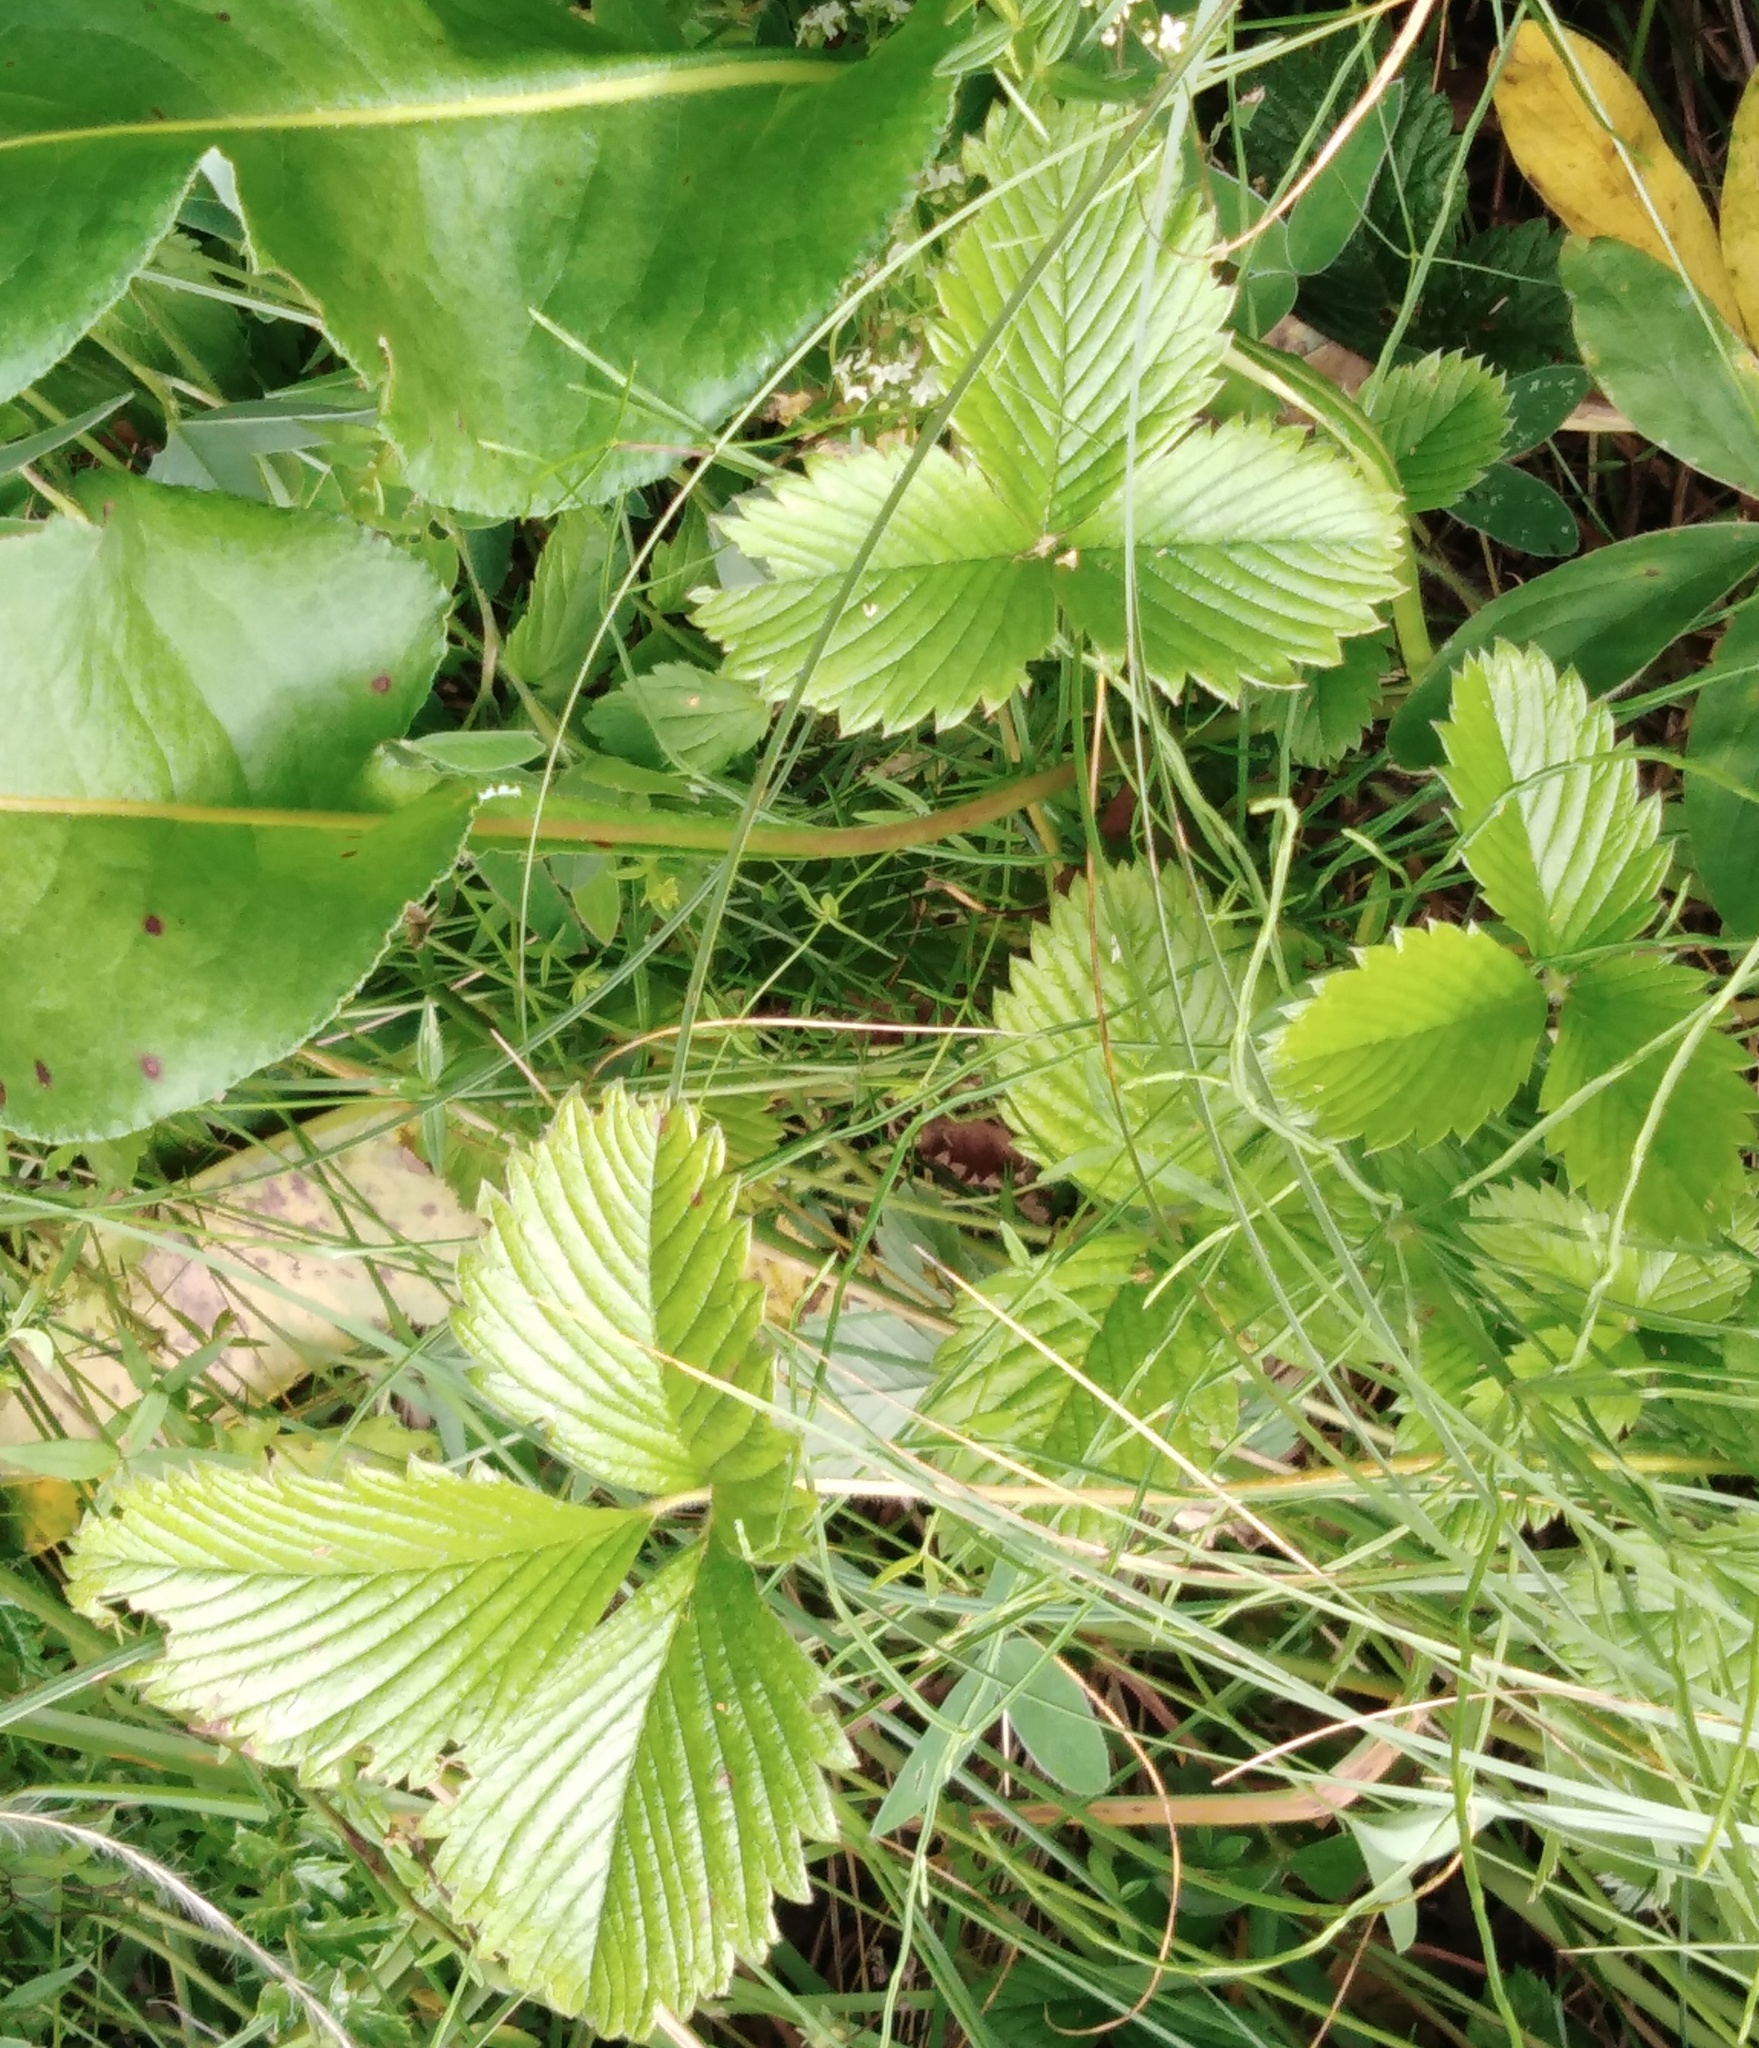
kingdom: Plantae
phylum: Tracheophyta
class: Magnoliopsida
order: Rosales
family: Rosaceae
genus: Fragaria
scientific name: Fragaria viridis
